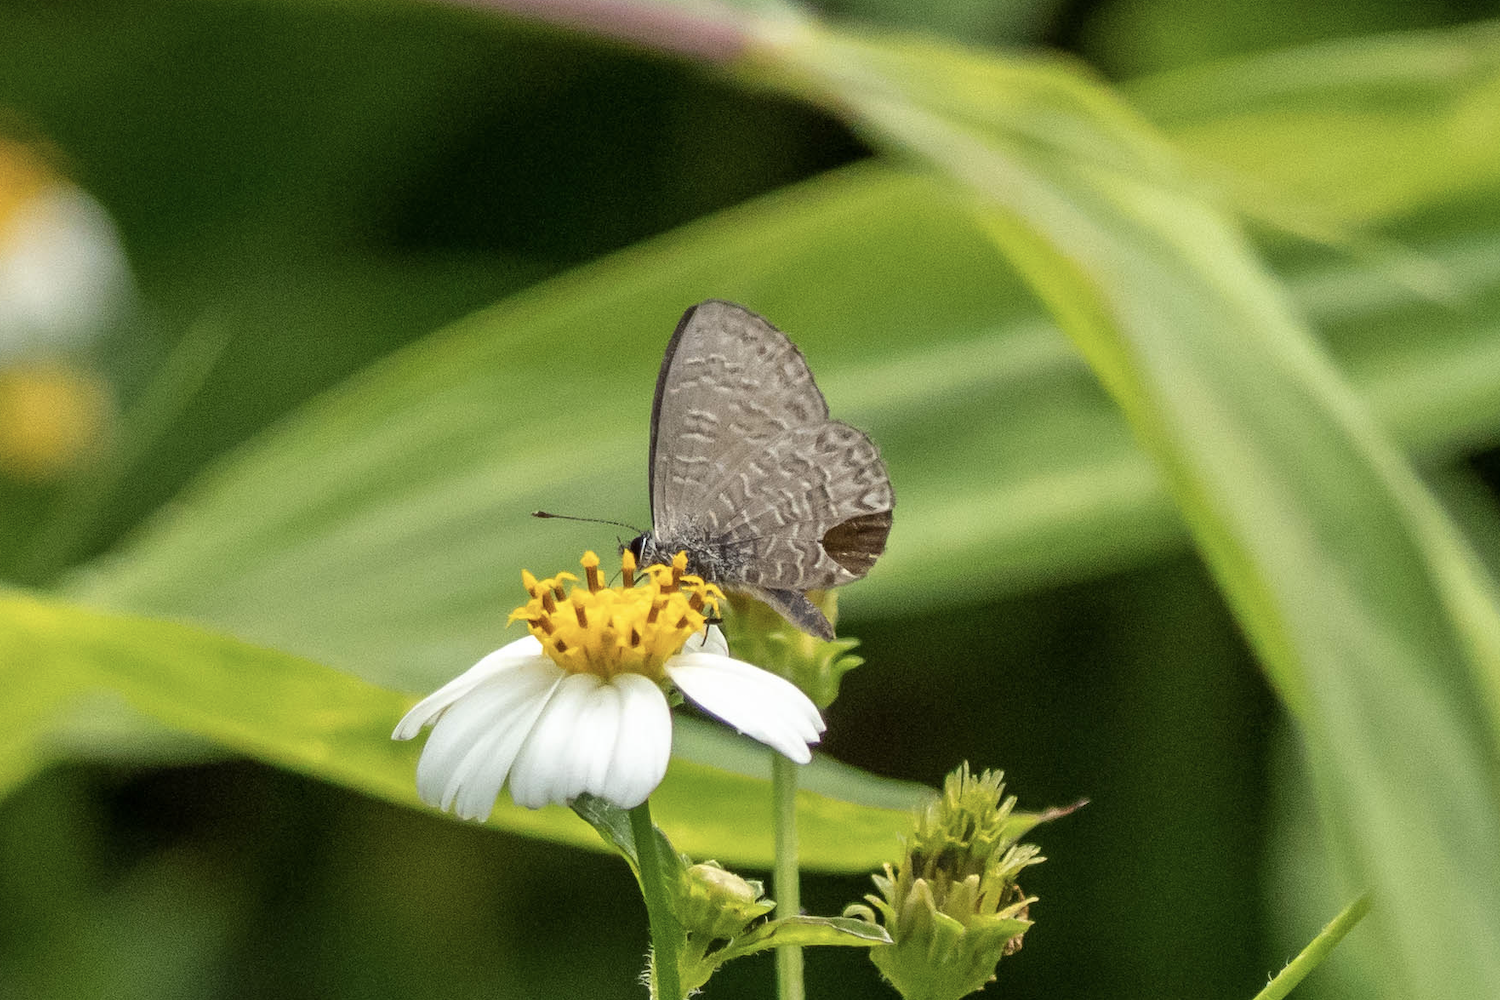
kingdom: Animalia
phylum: Arthropoda
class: Insecta
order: Lepidoptera
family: Lycaenidae
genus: Prosotas
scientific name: Prosotas dubiosa
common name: Tailless lineblue
